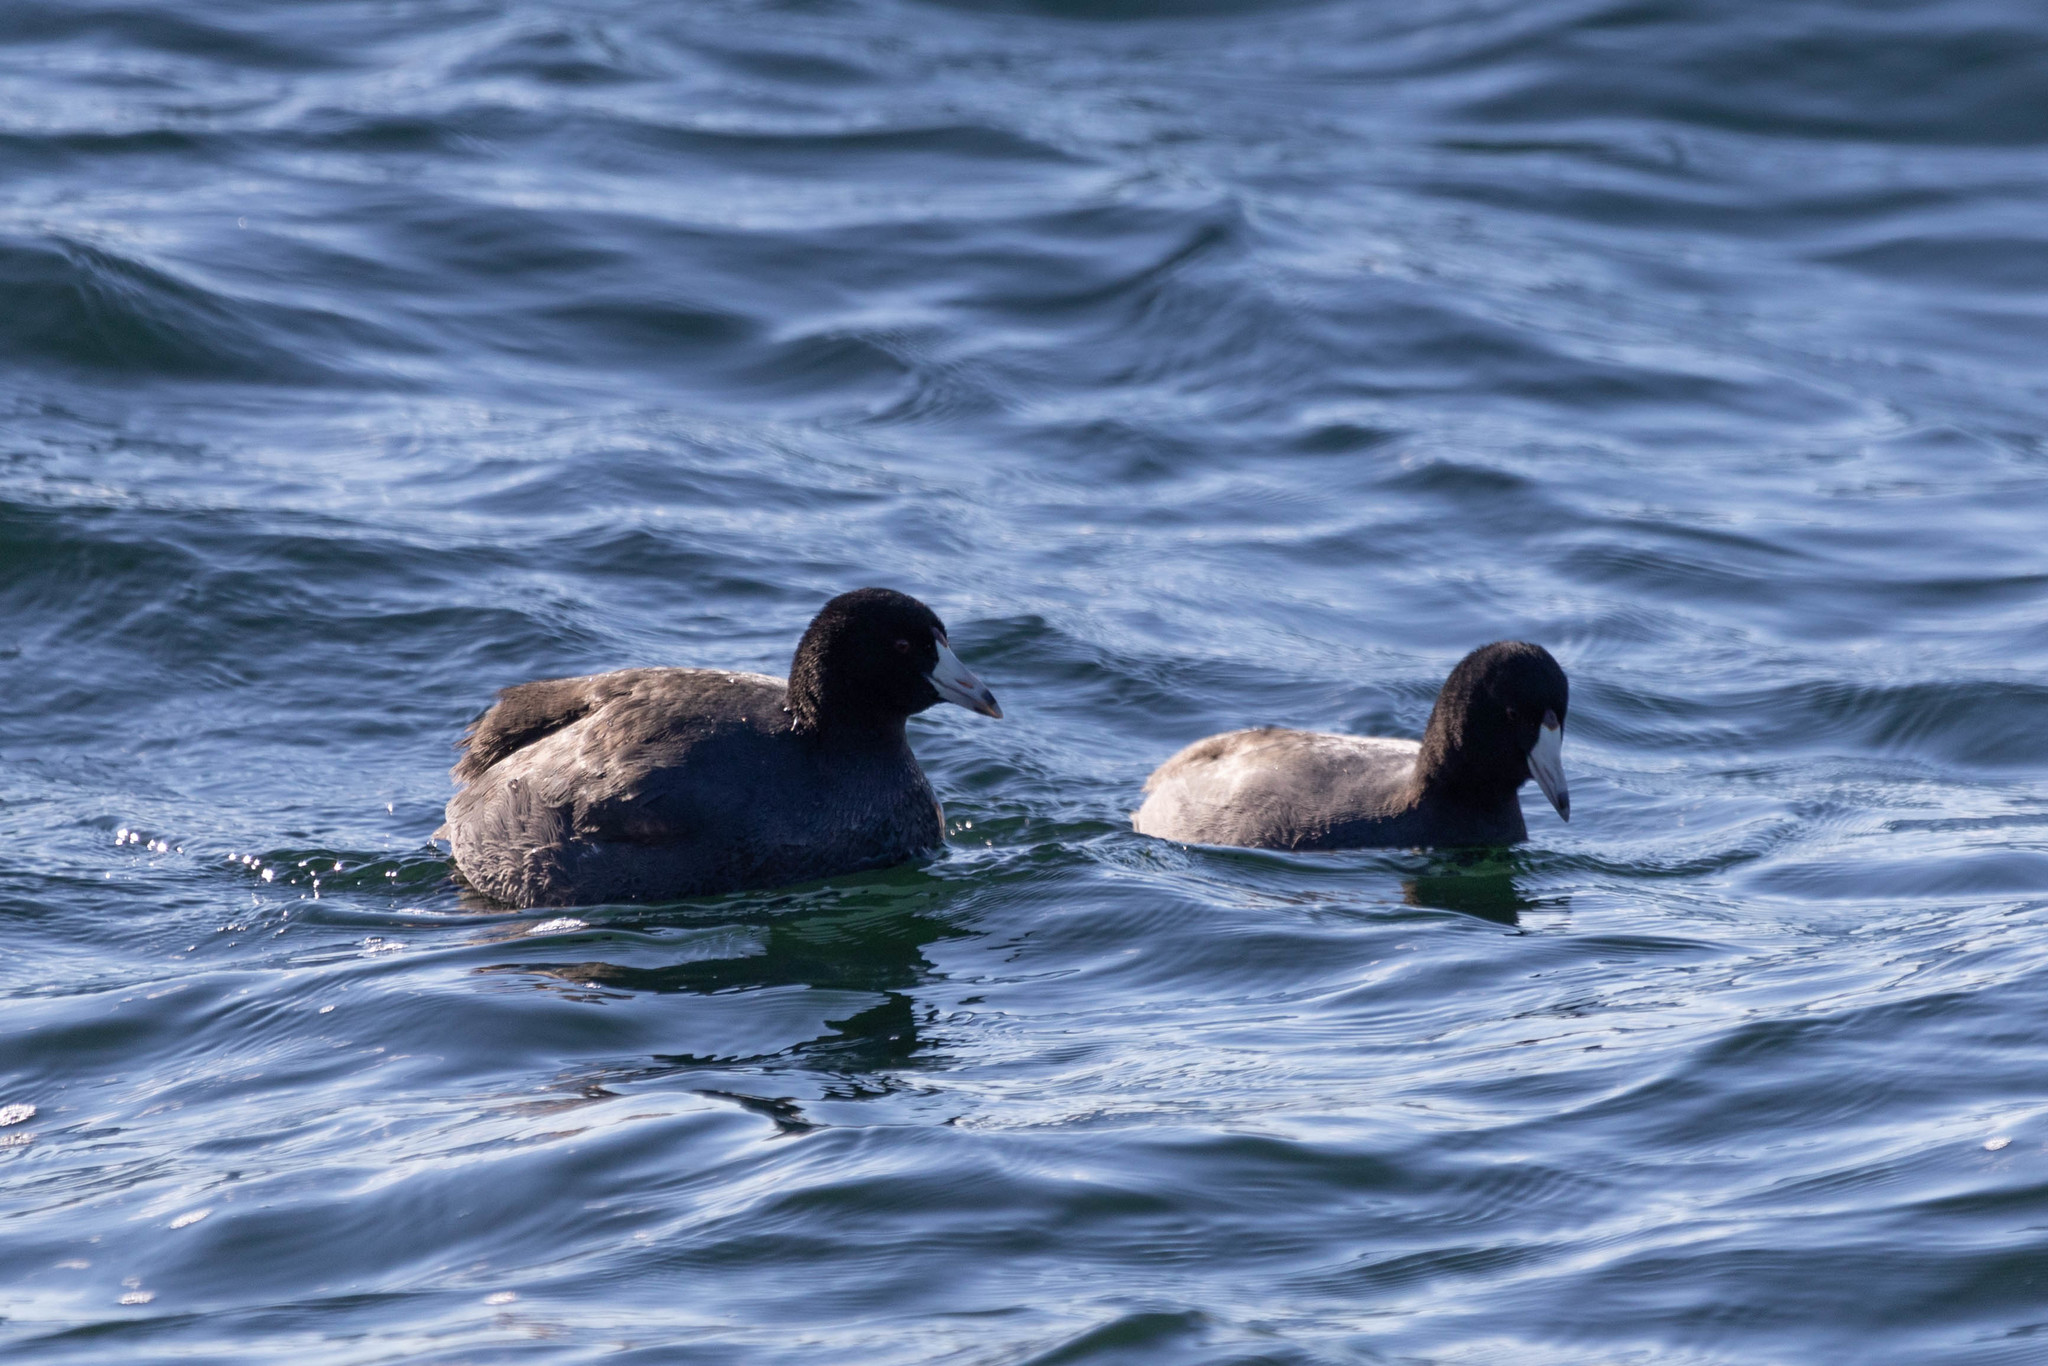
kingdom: Animalia
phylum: Chordata
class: Aves
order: Gruiformes
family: Rallidae
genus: Fulica
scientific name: Fulica americana
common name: American coot
